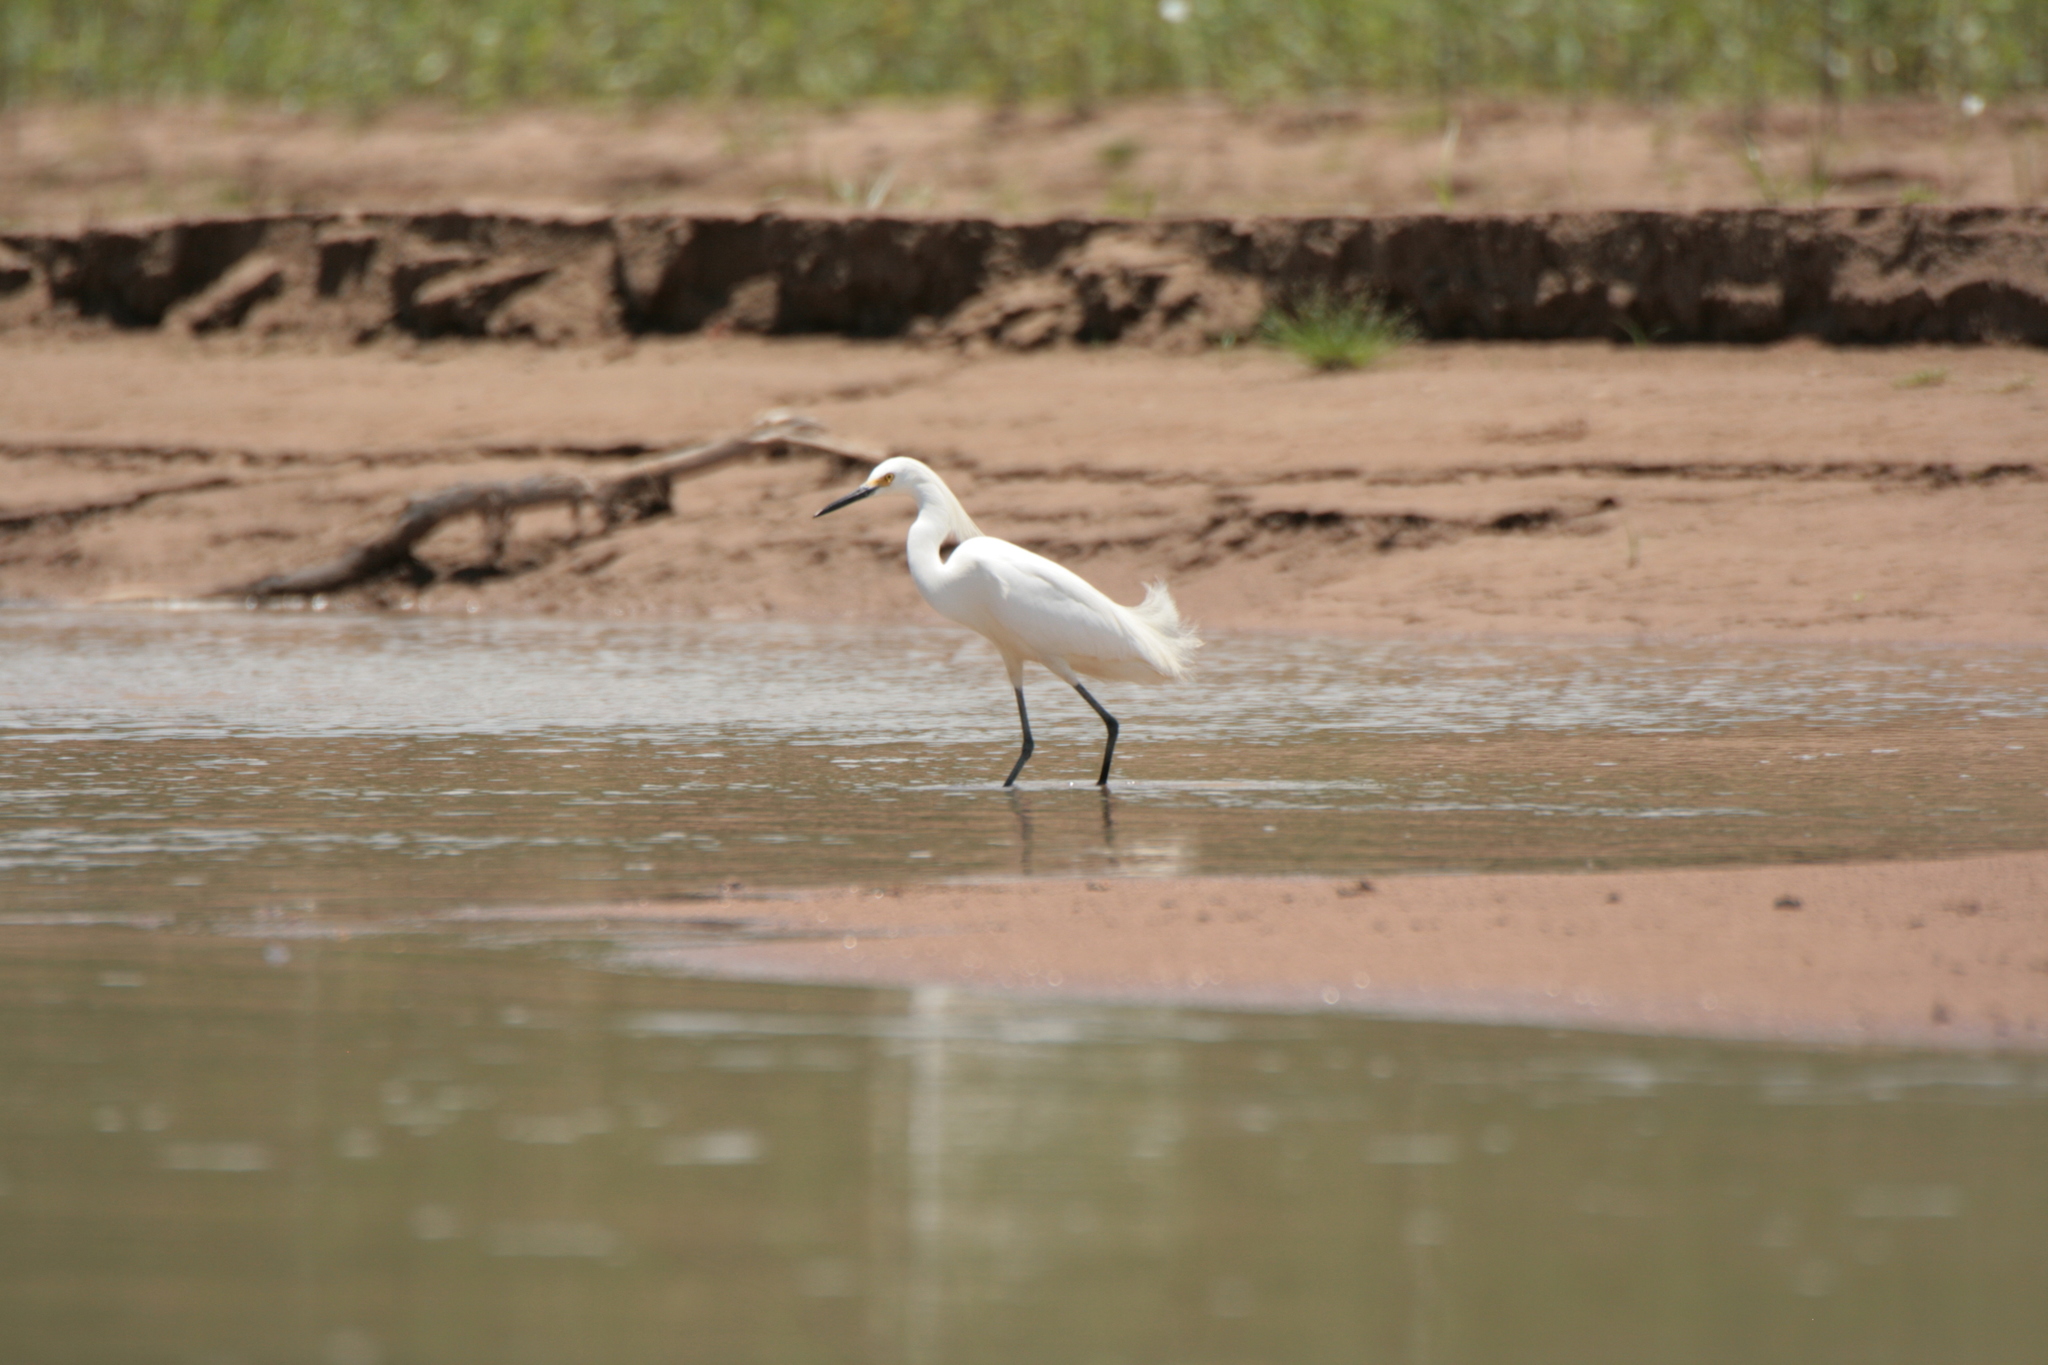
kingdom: Animalia
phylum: Chordata
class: Aves
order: Pelecaniformes
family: Ardeidae
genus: Egretta
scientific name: Egretta thula
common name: Snowy egret
